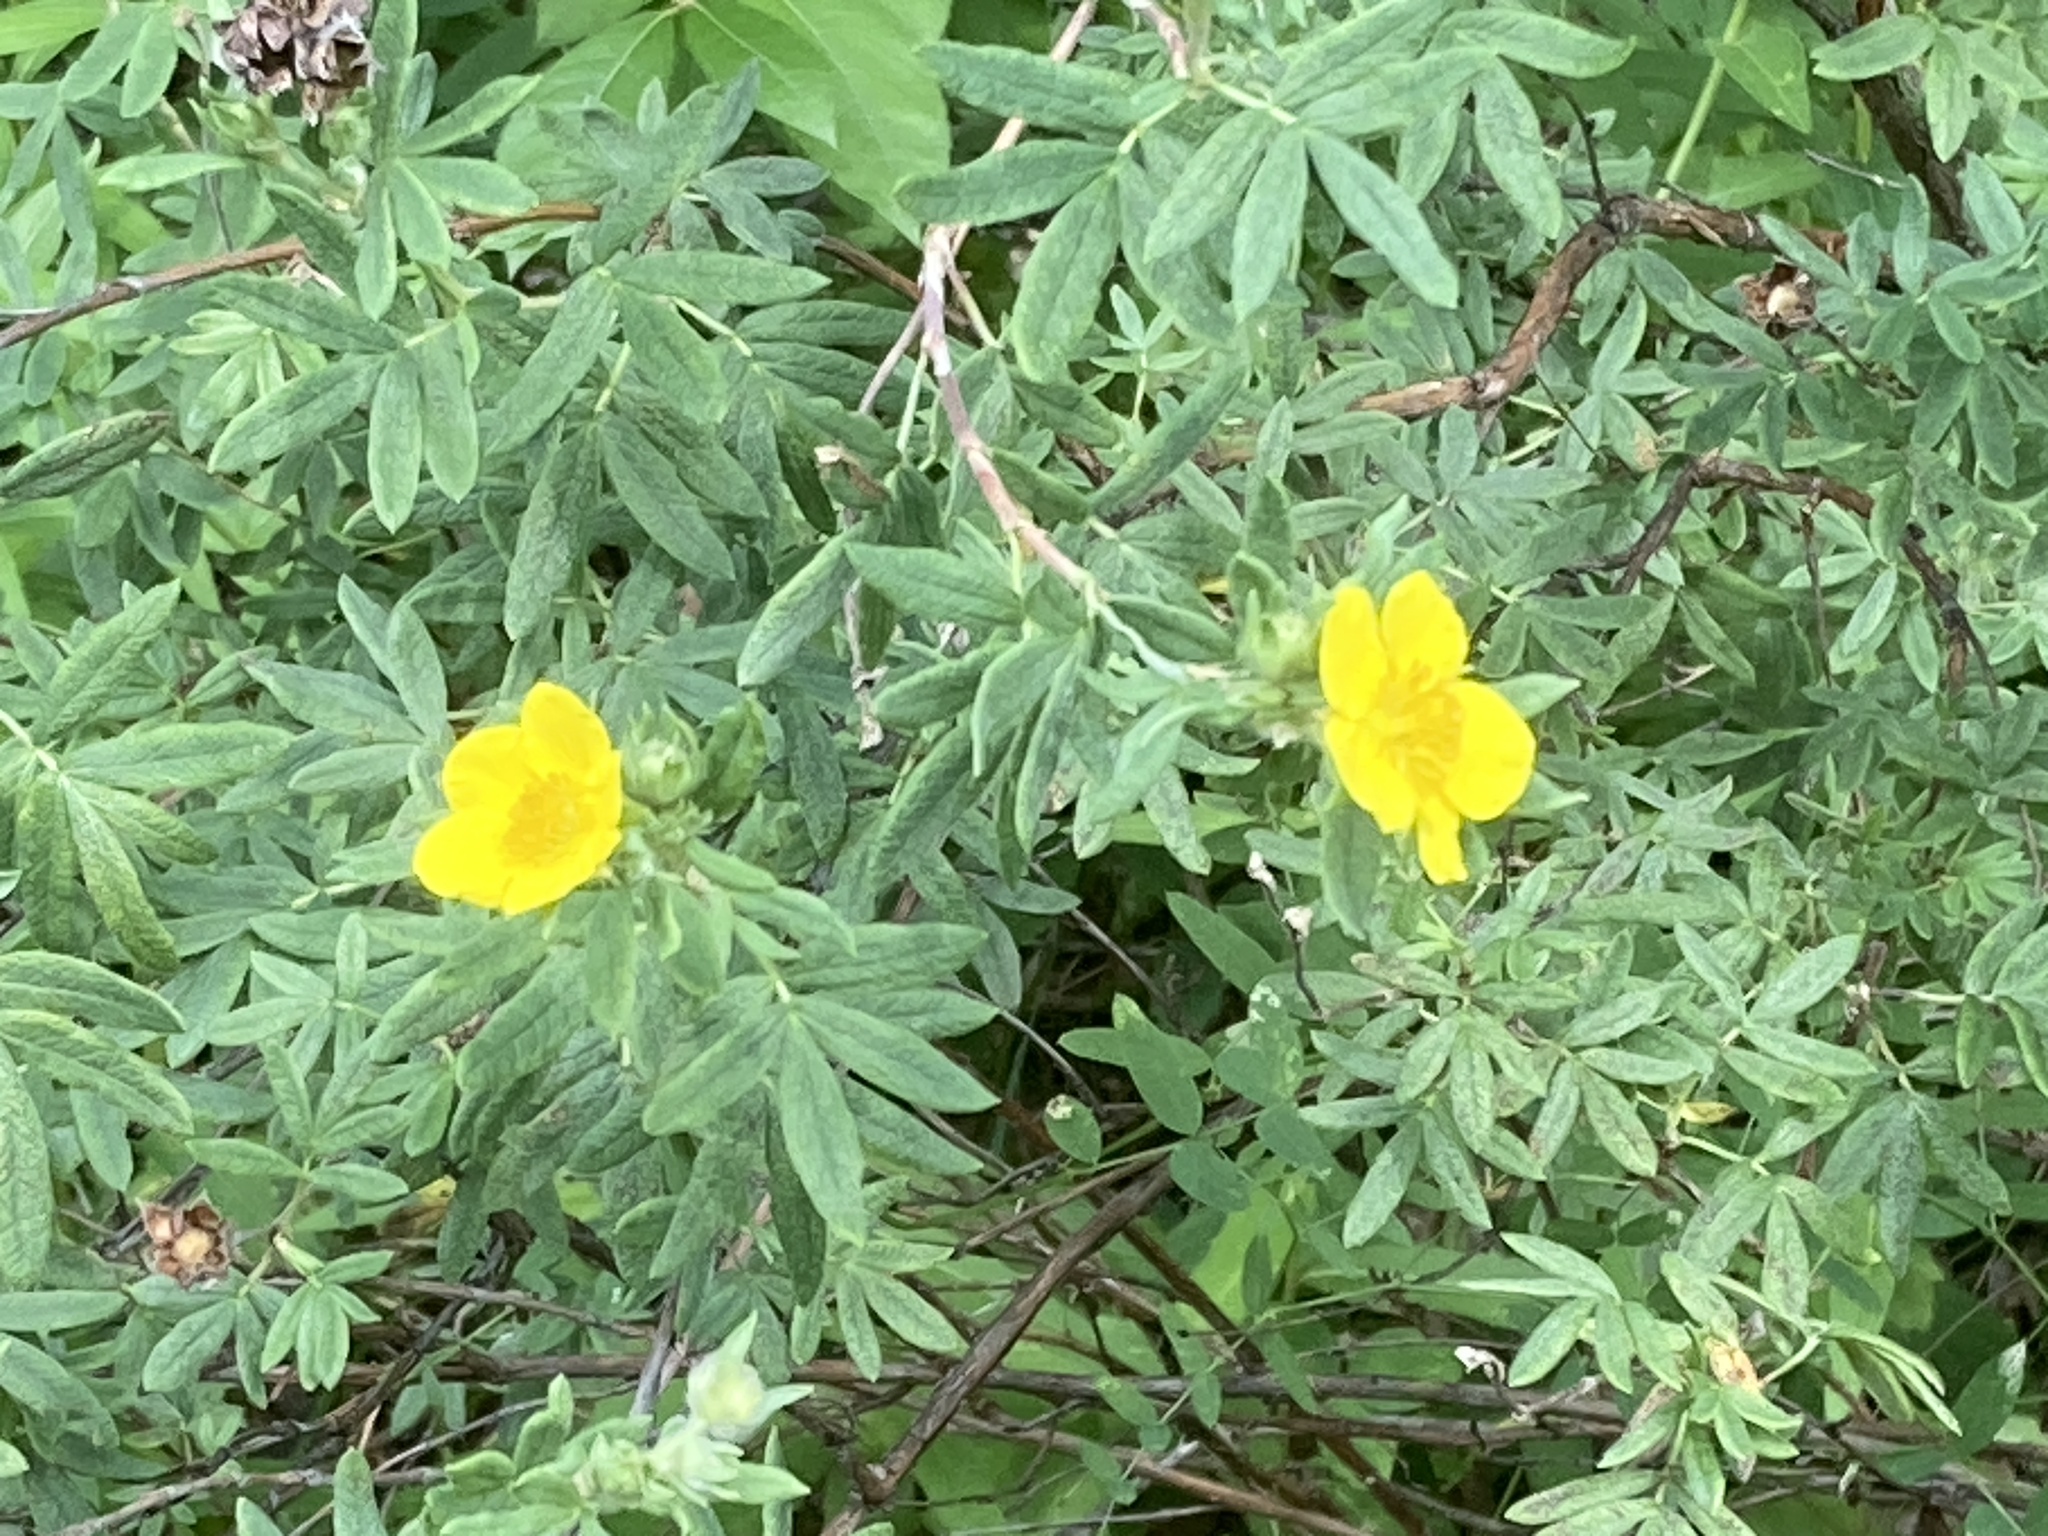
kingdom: Plantae
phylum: Tracheophyta
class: Magnoliopsida
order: Rosales
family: Rosaceae
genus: Dasiphora
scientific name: Dasiphora fruticosa
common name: Shrubby cinquefoil
